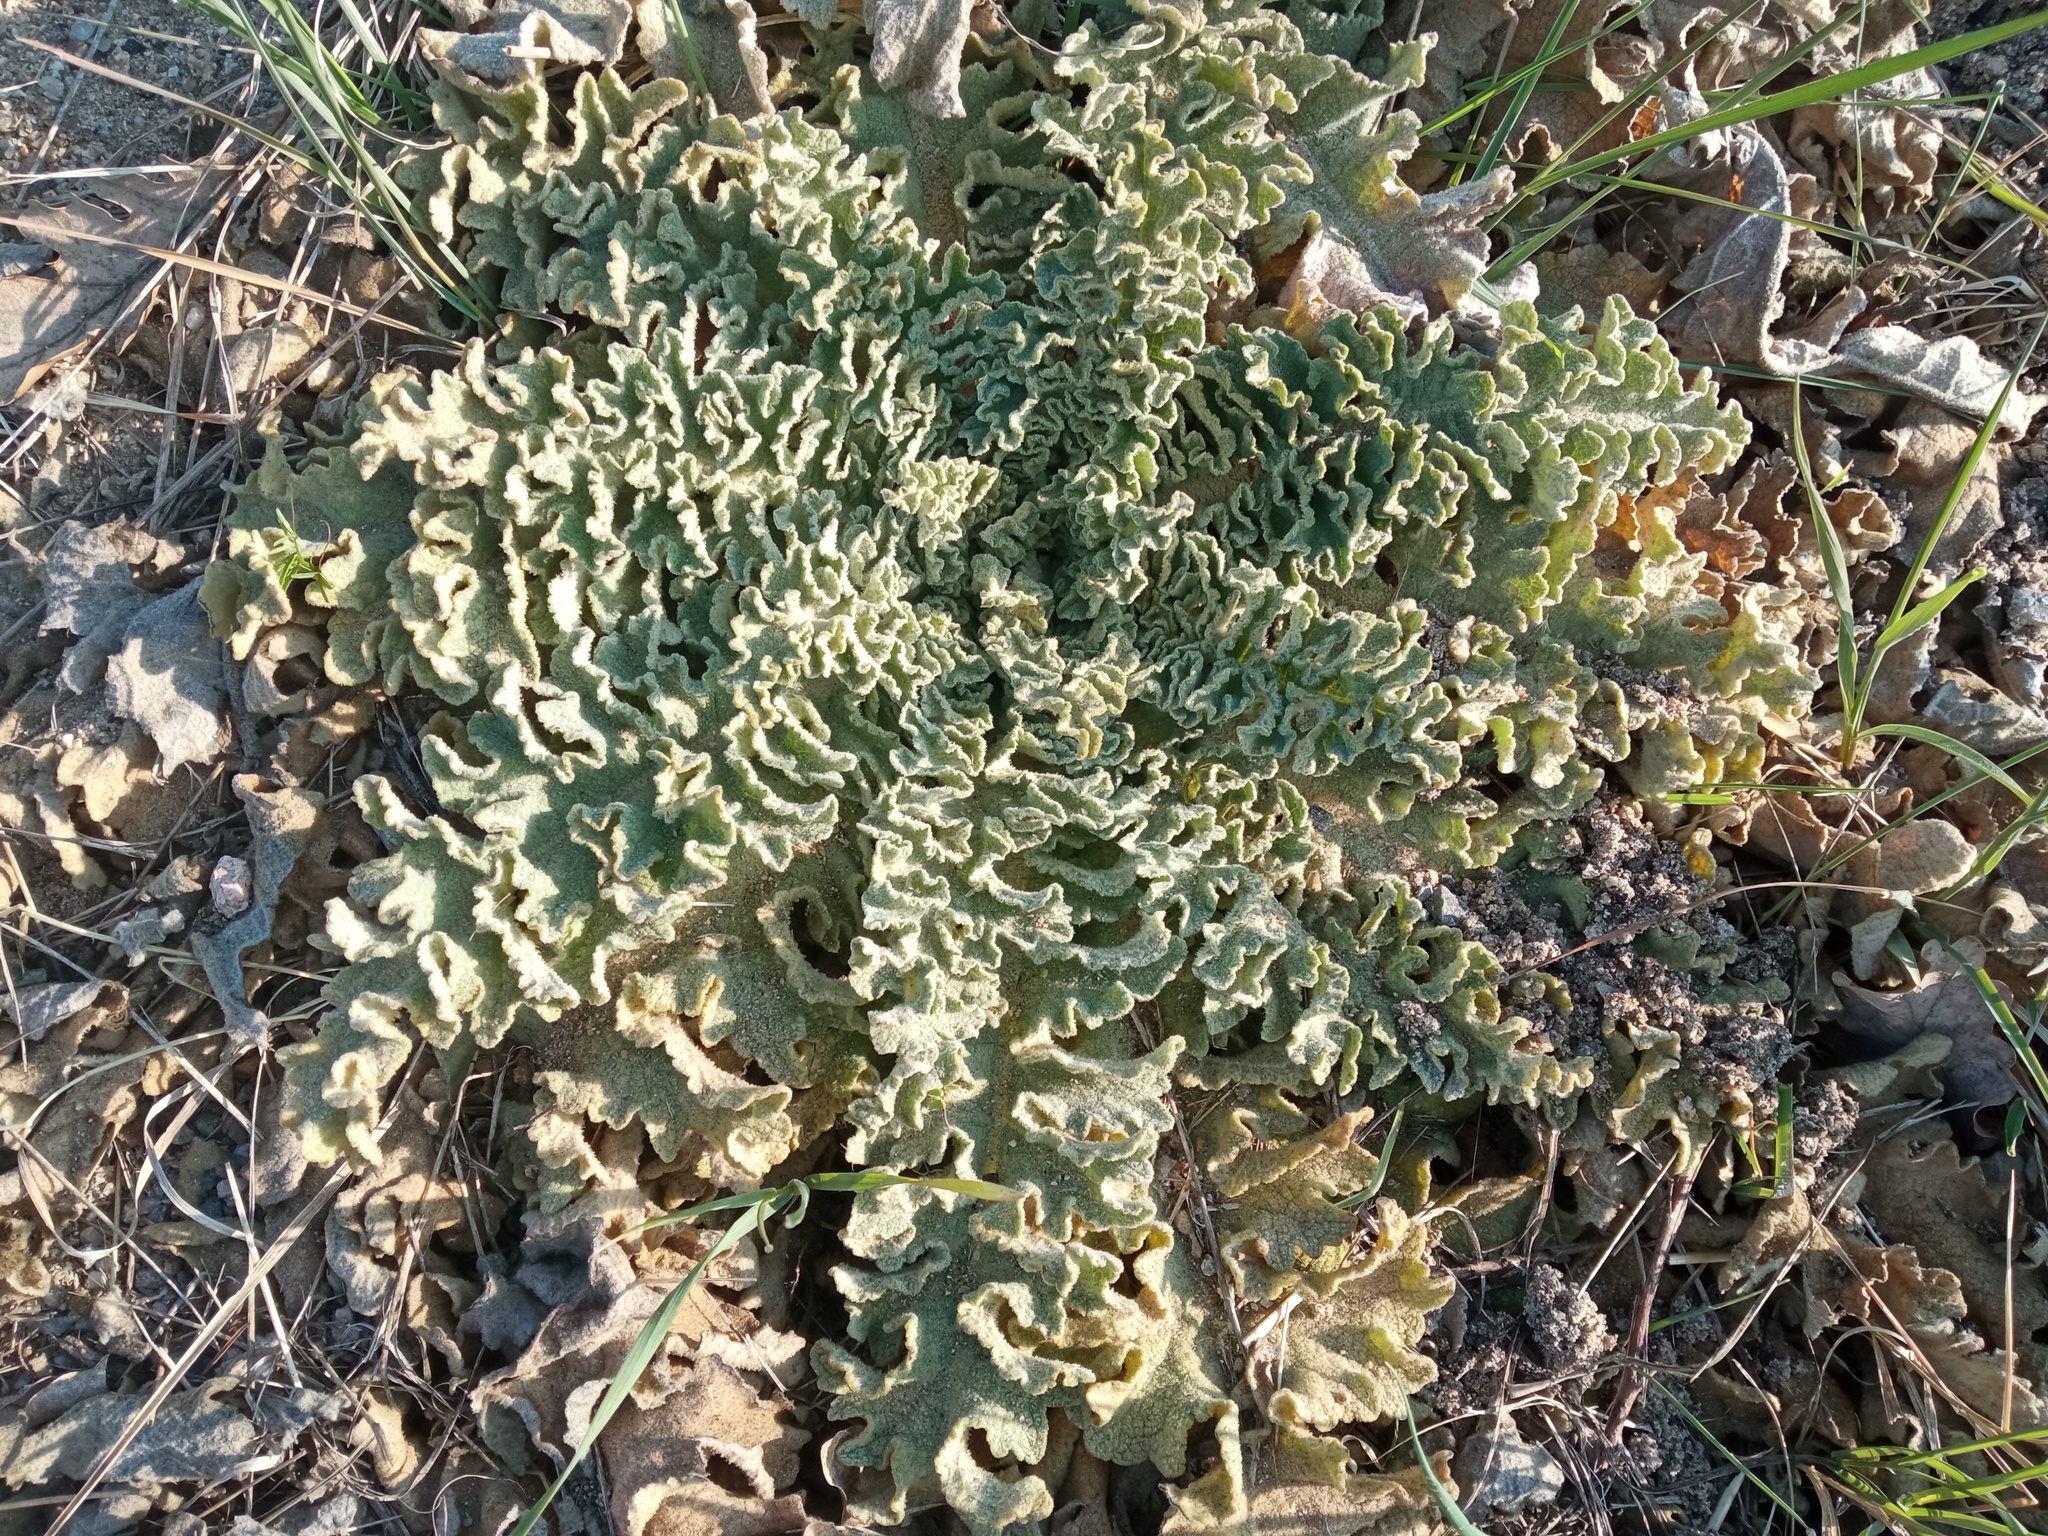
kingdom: Plantae
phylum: Tracheophyta
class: Magnoliopsida
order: Lamiales
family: Scrophulariaceae
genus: Verbascum
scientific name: Verbascum sinuatum
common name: Wavyleaf mullein
